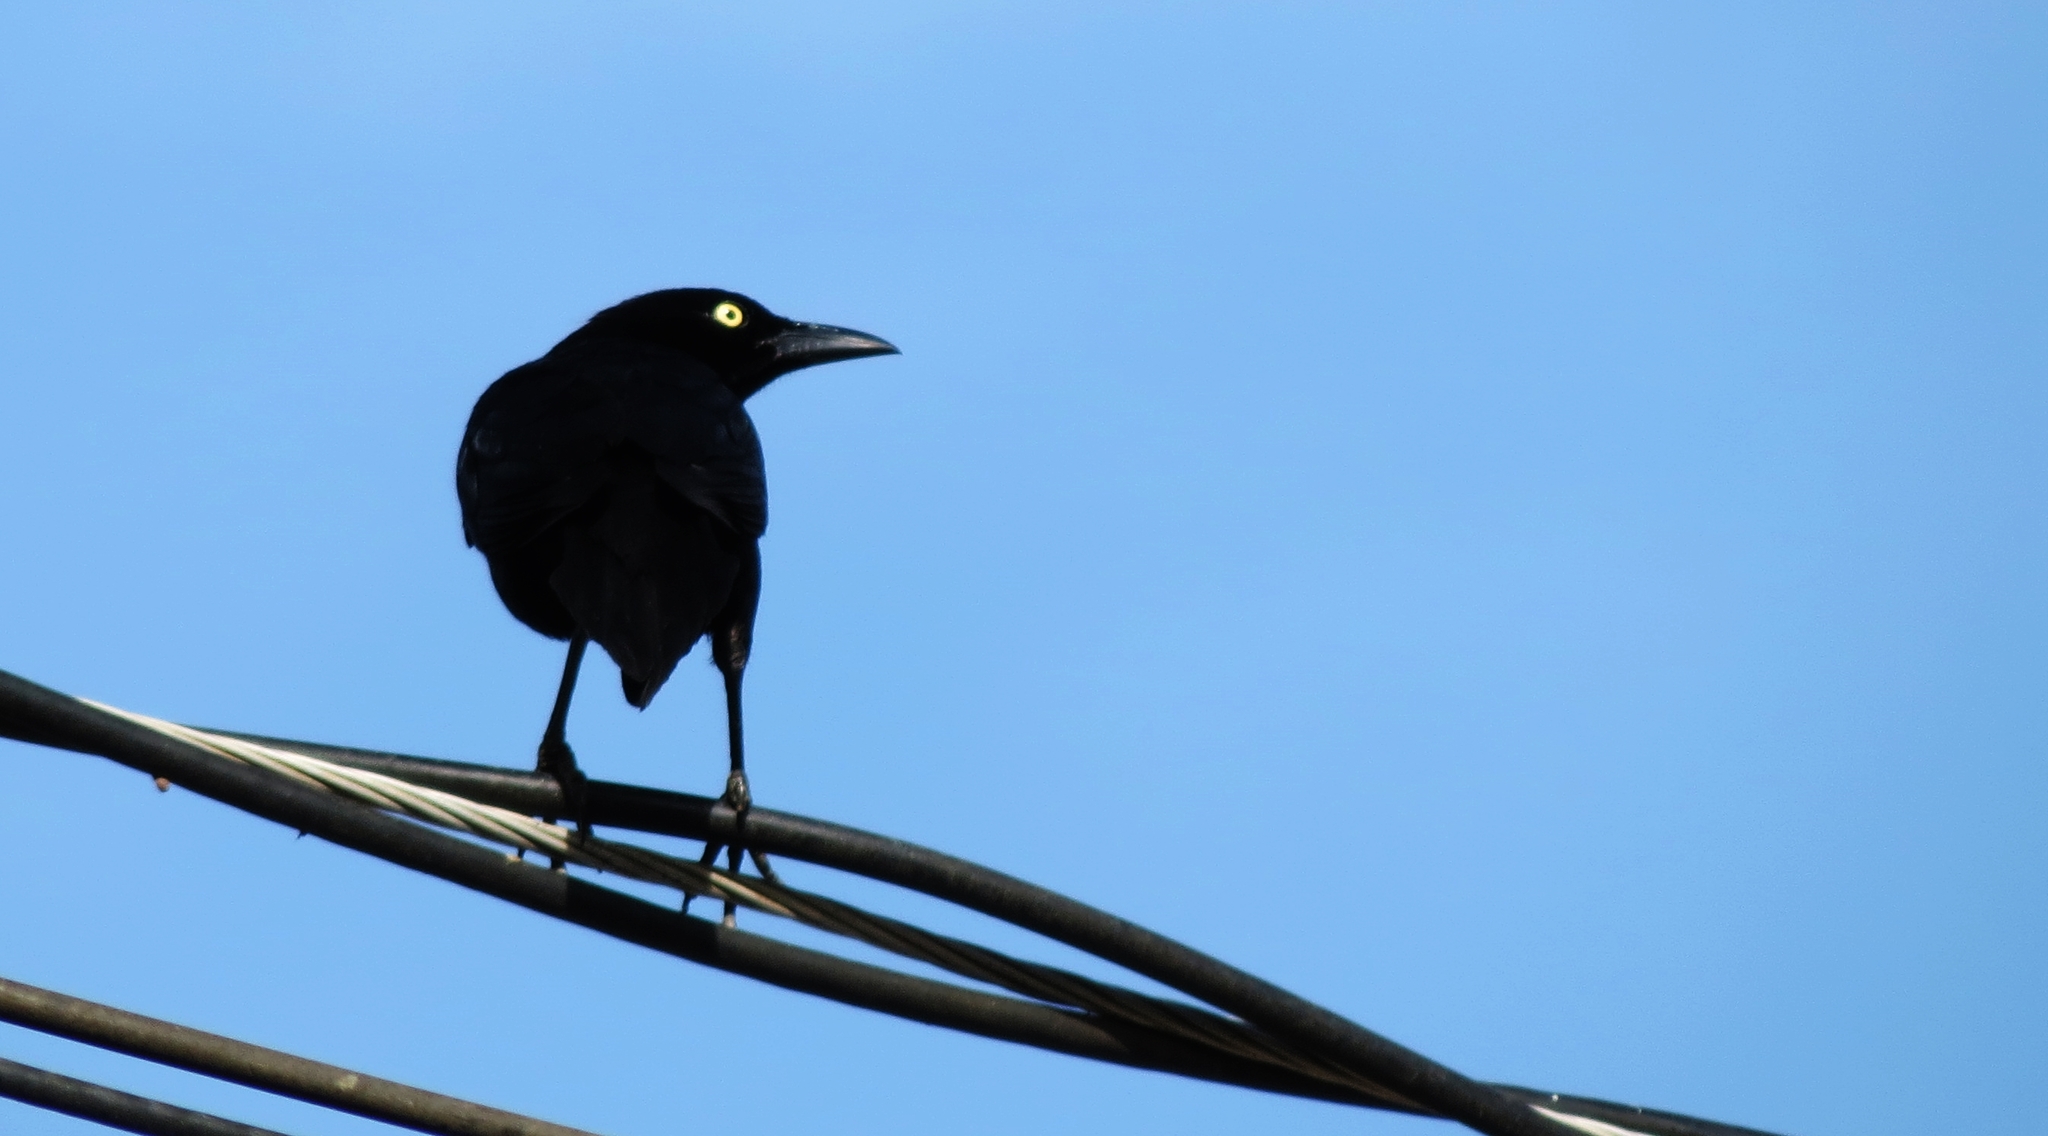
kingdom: Animalia
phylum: Chordata
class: Aves
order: Passeriformes
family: Icteridae
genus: Quiscalus
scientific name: Quiscalus lugubris
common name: Carib grackle
